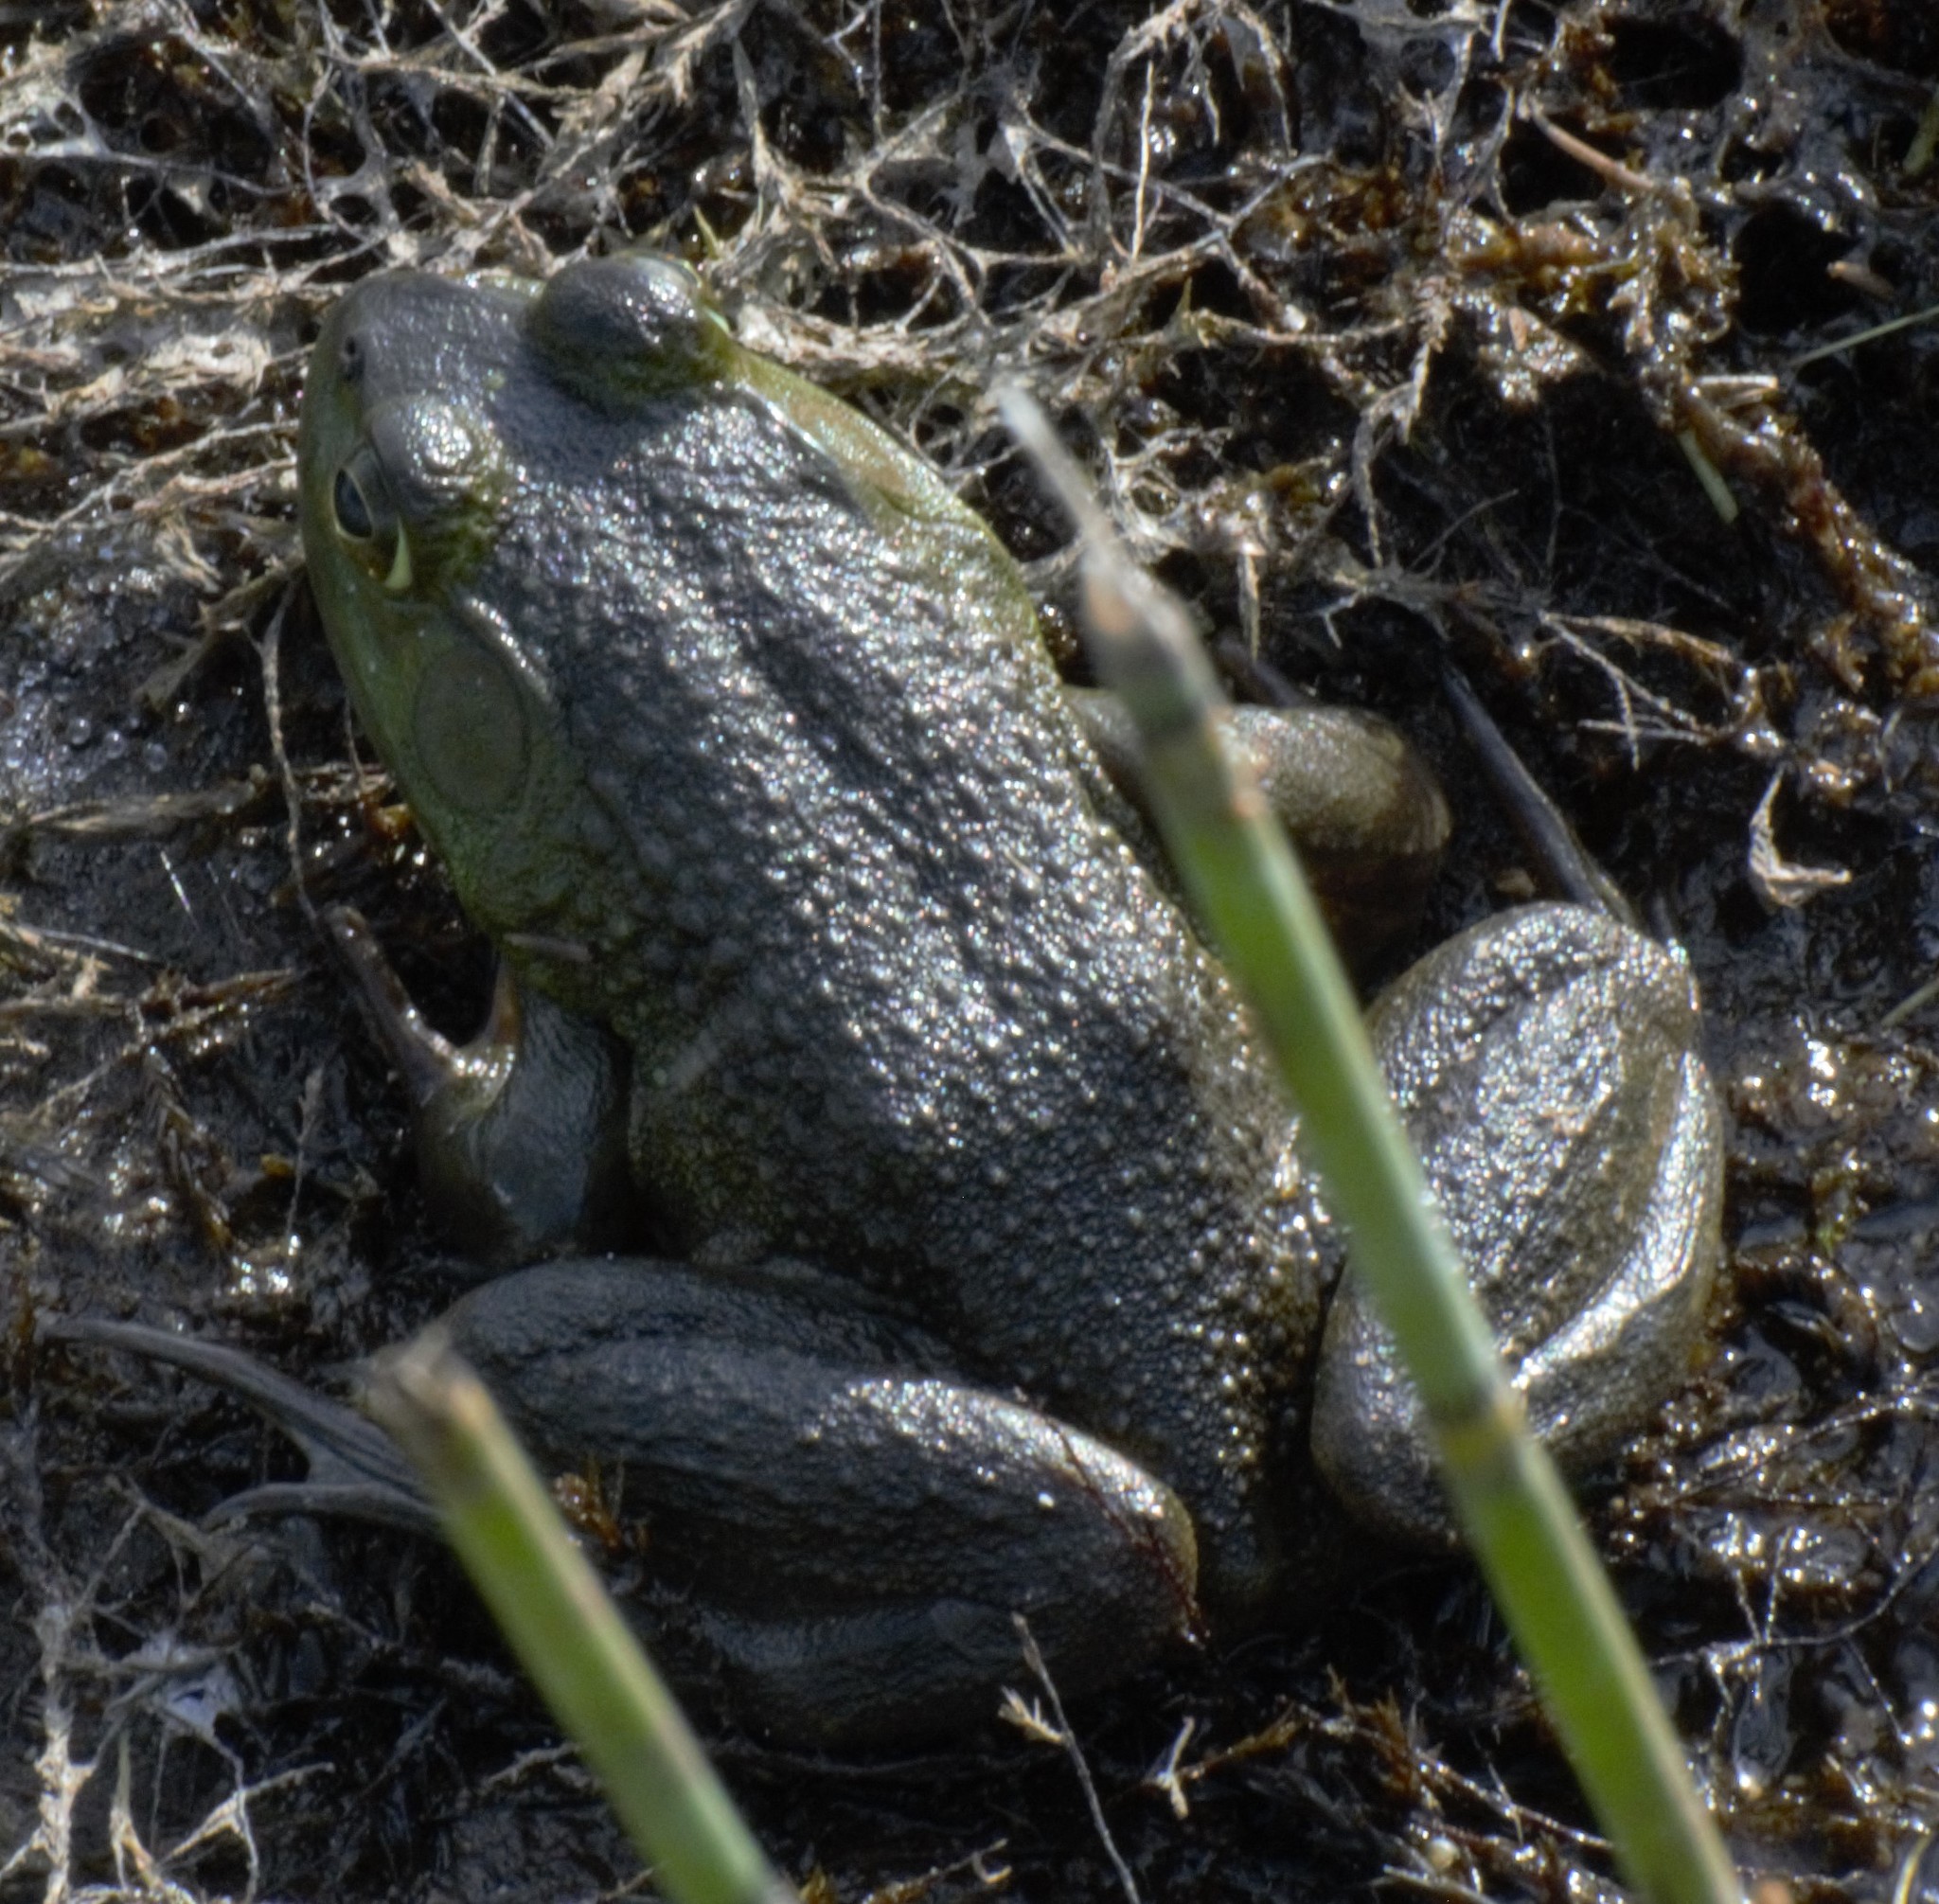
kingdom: Animalia
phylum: Chordata
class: Amphibia
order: Anura
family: Ranidae
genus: Lithobates
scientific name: Lithobates catesbeianus
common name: American bullfrog
